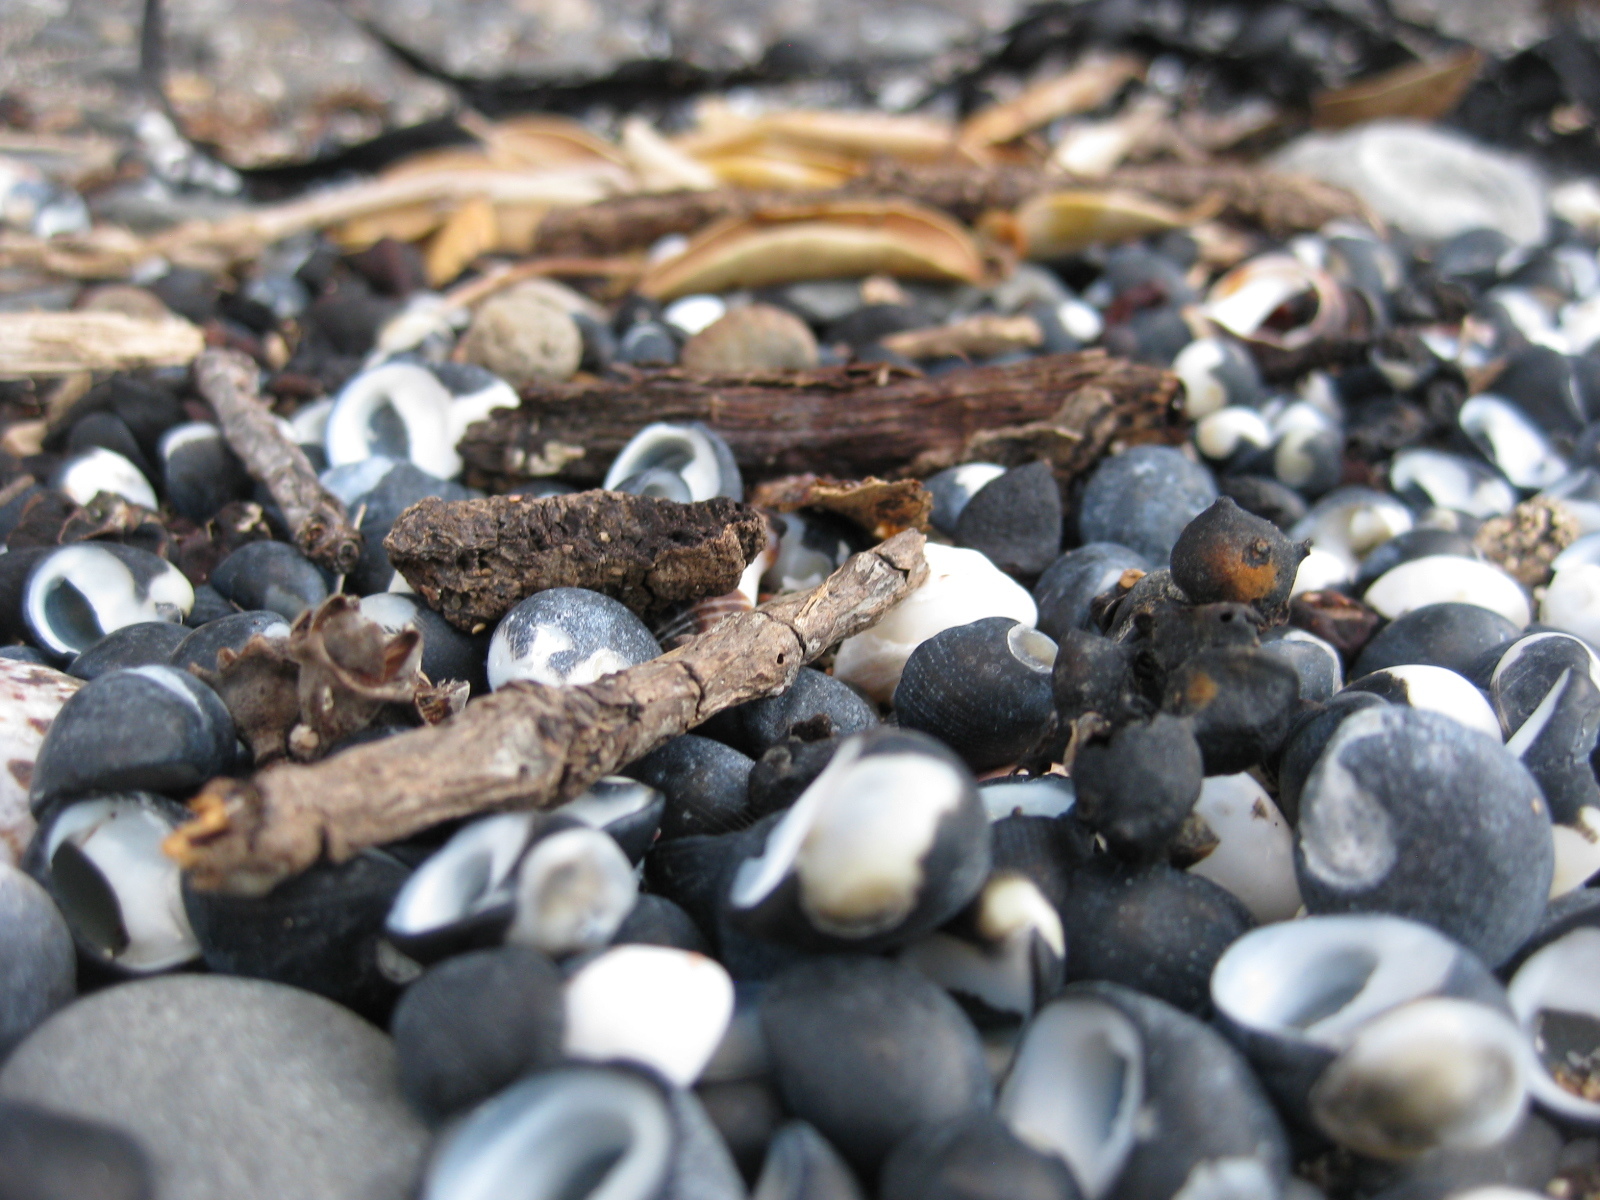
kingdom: Animalia
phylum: Mollusca
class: Gastropoda
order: Cycloneritida
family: Neritidae
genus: Nerita
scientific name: Nerita melanotragus
